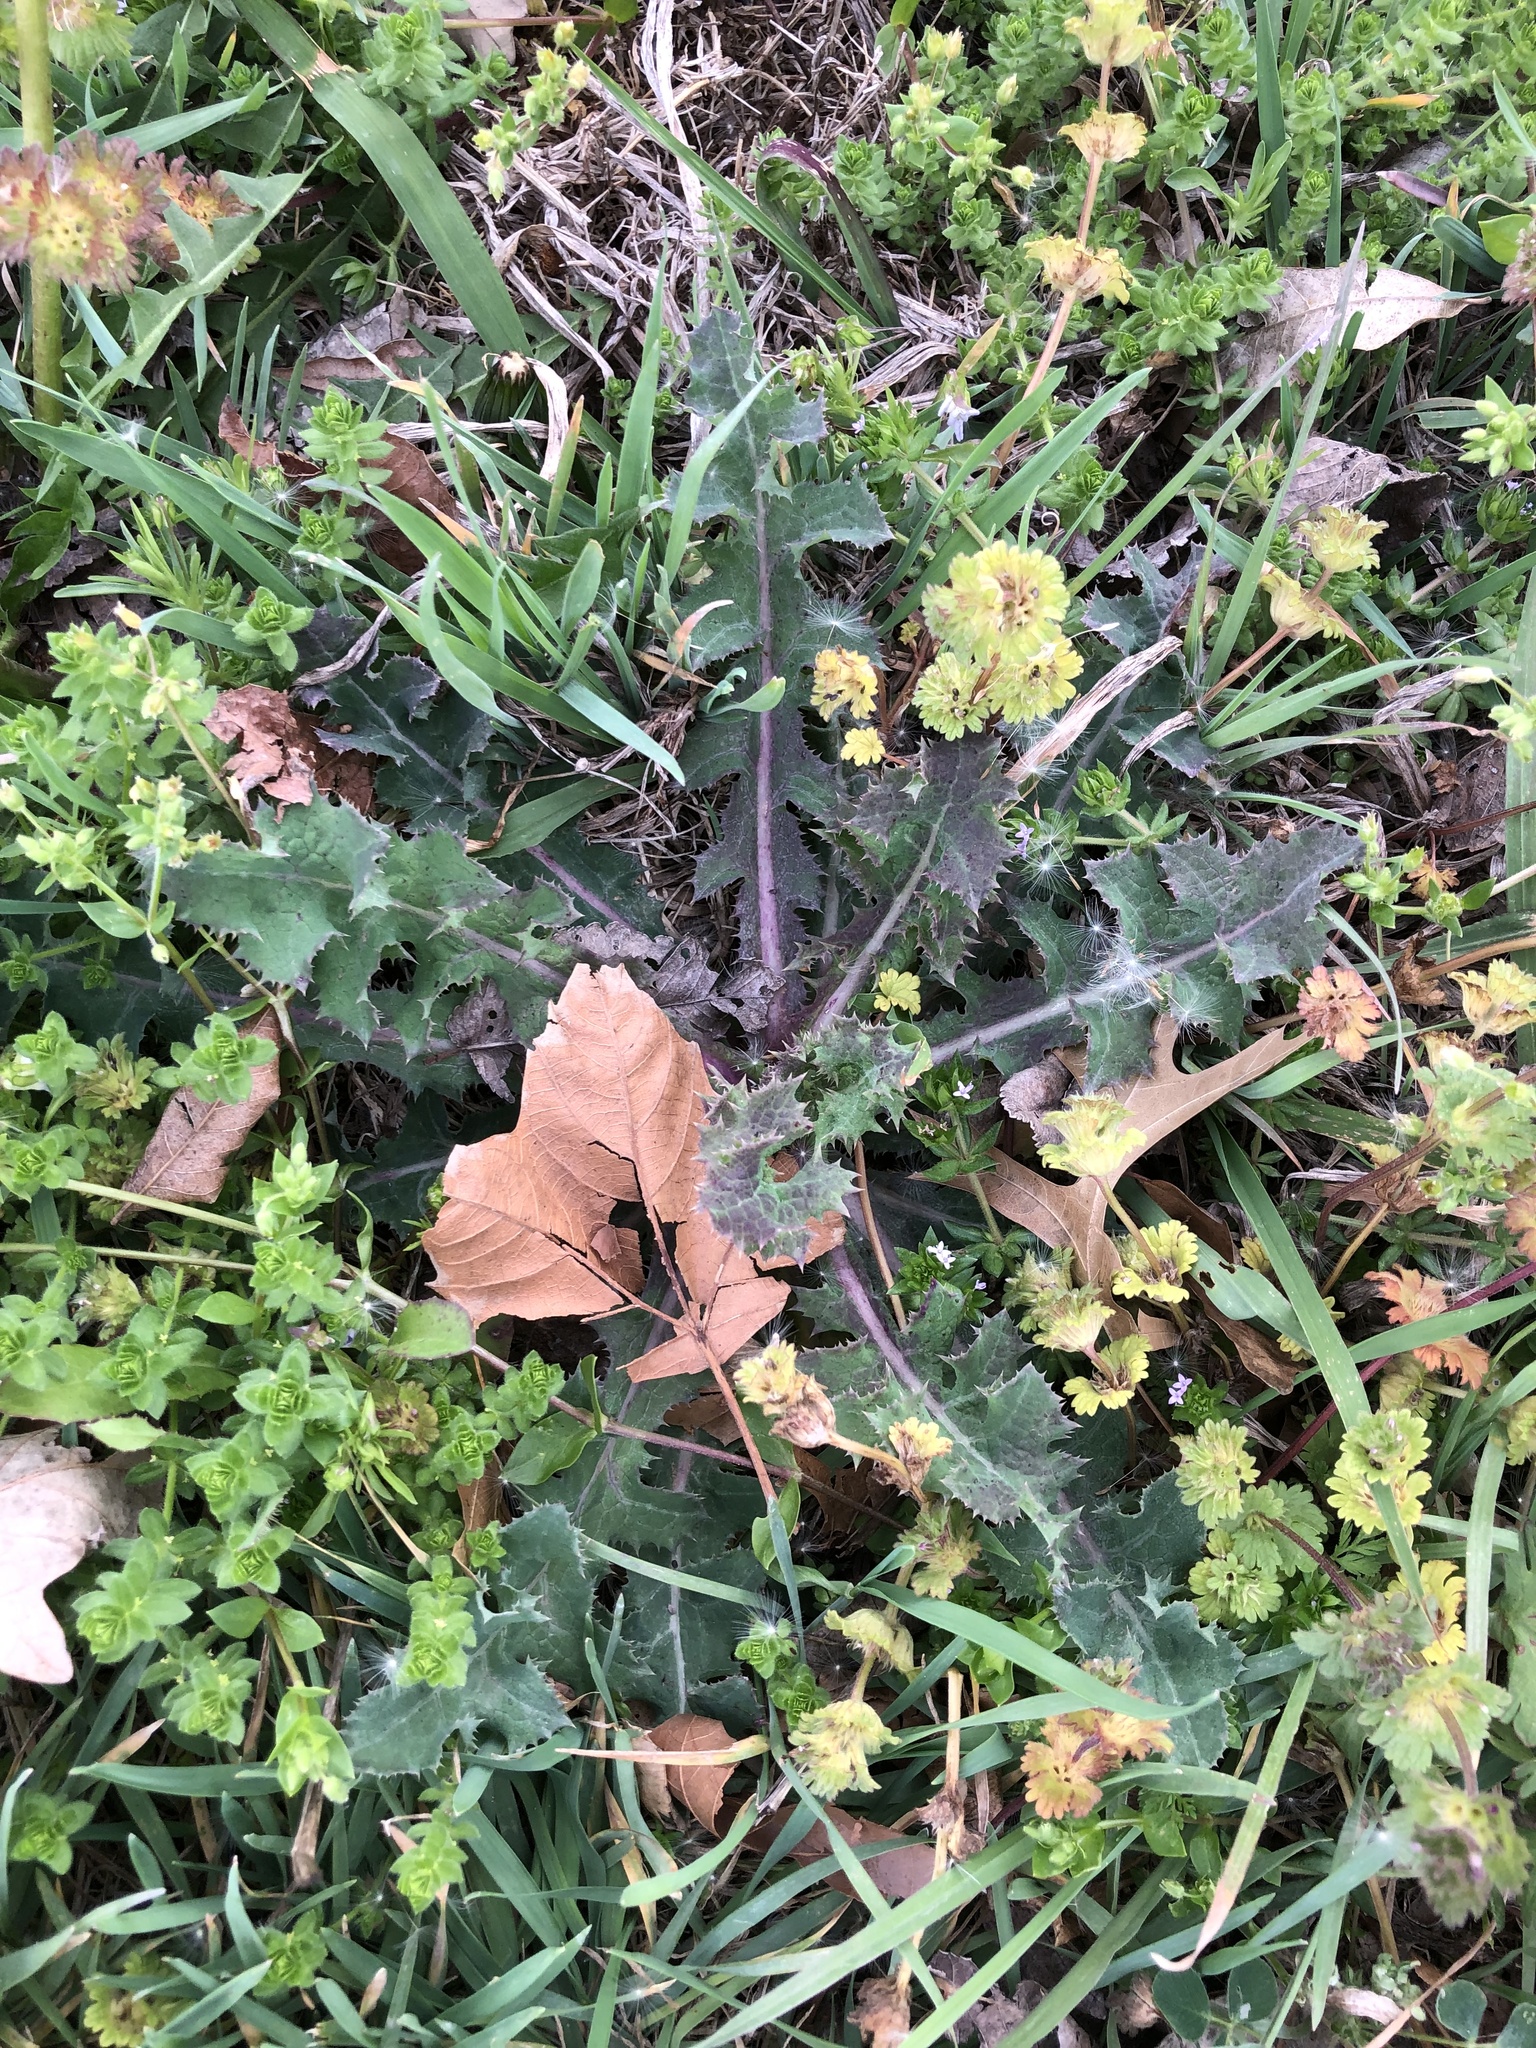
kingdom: Plantae
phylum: Tracheophyta
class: Magnoliopsida
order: Asterales
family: Asteraceae
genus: Sonchus
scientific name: Sonchus asper
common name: Prickly sow-thistle
